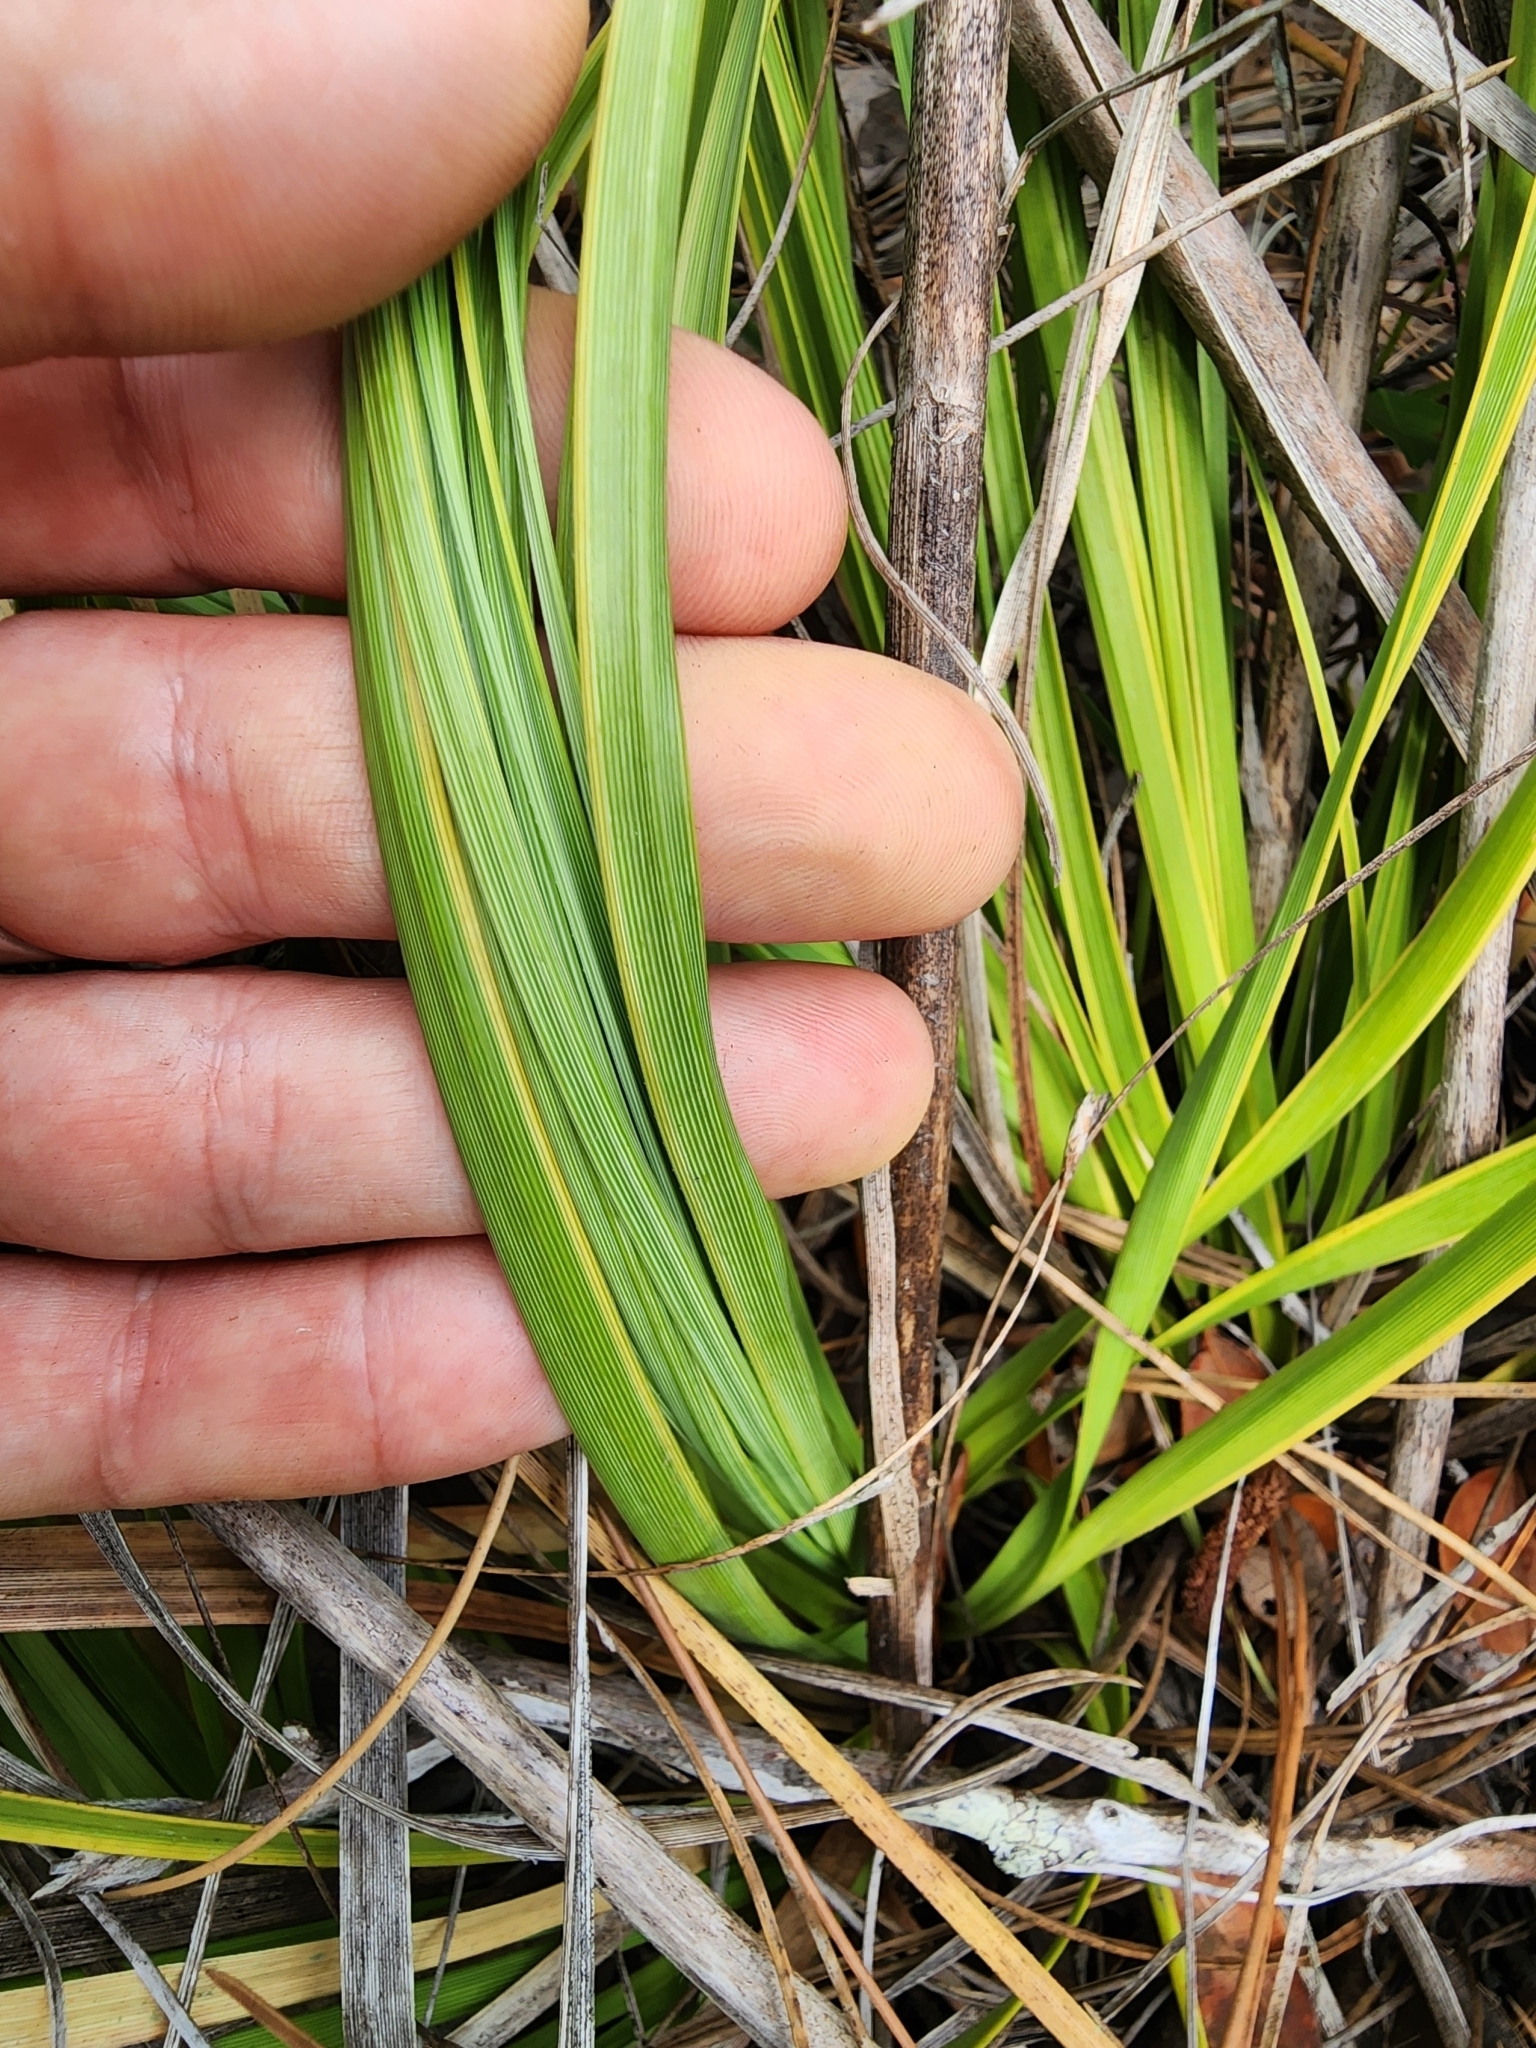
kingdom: Plantae
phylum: Tracheophyta
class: Liliopsida
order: Asparagales
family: Asparagaceae
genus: Nolina
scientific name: Nolina brittoniana
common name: Britton's bear-grass
